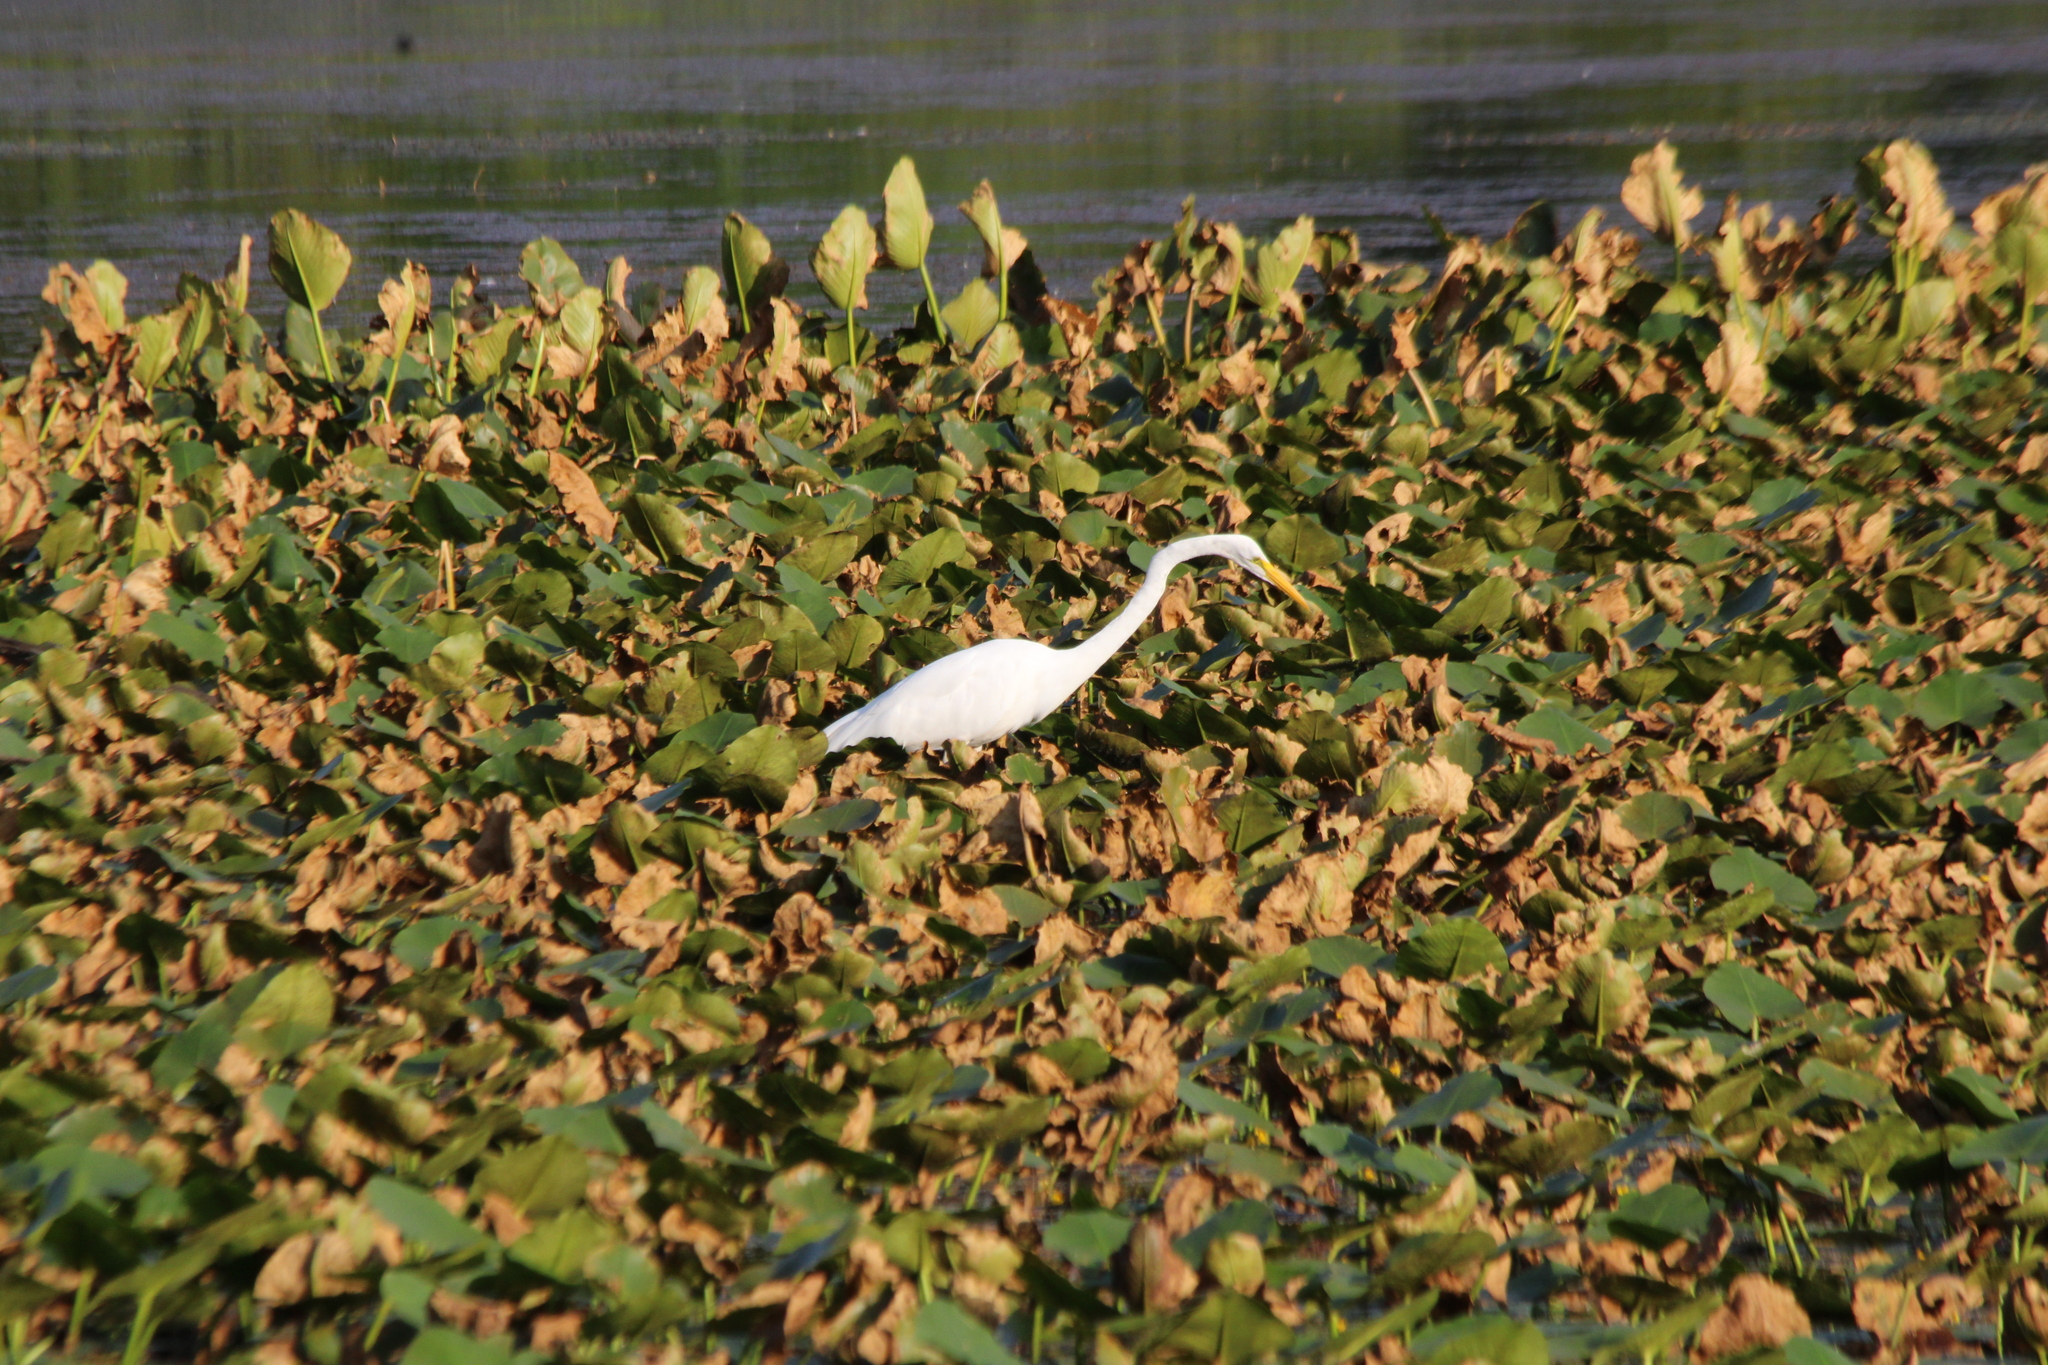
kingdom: Animalia
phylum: Chordata
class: Aves
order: Pelecaniformes
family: Ardeidae
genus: Ardea
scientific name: Ardea alba
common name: Great egret
